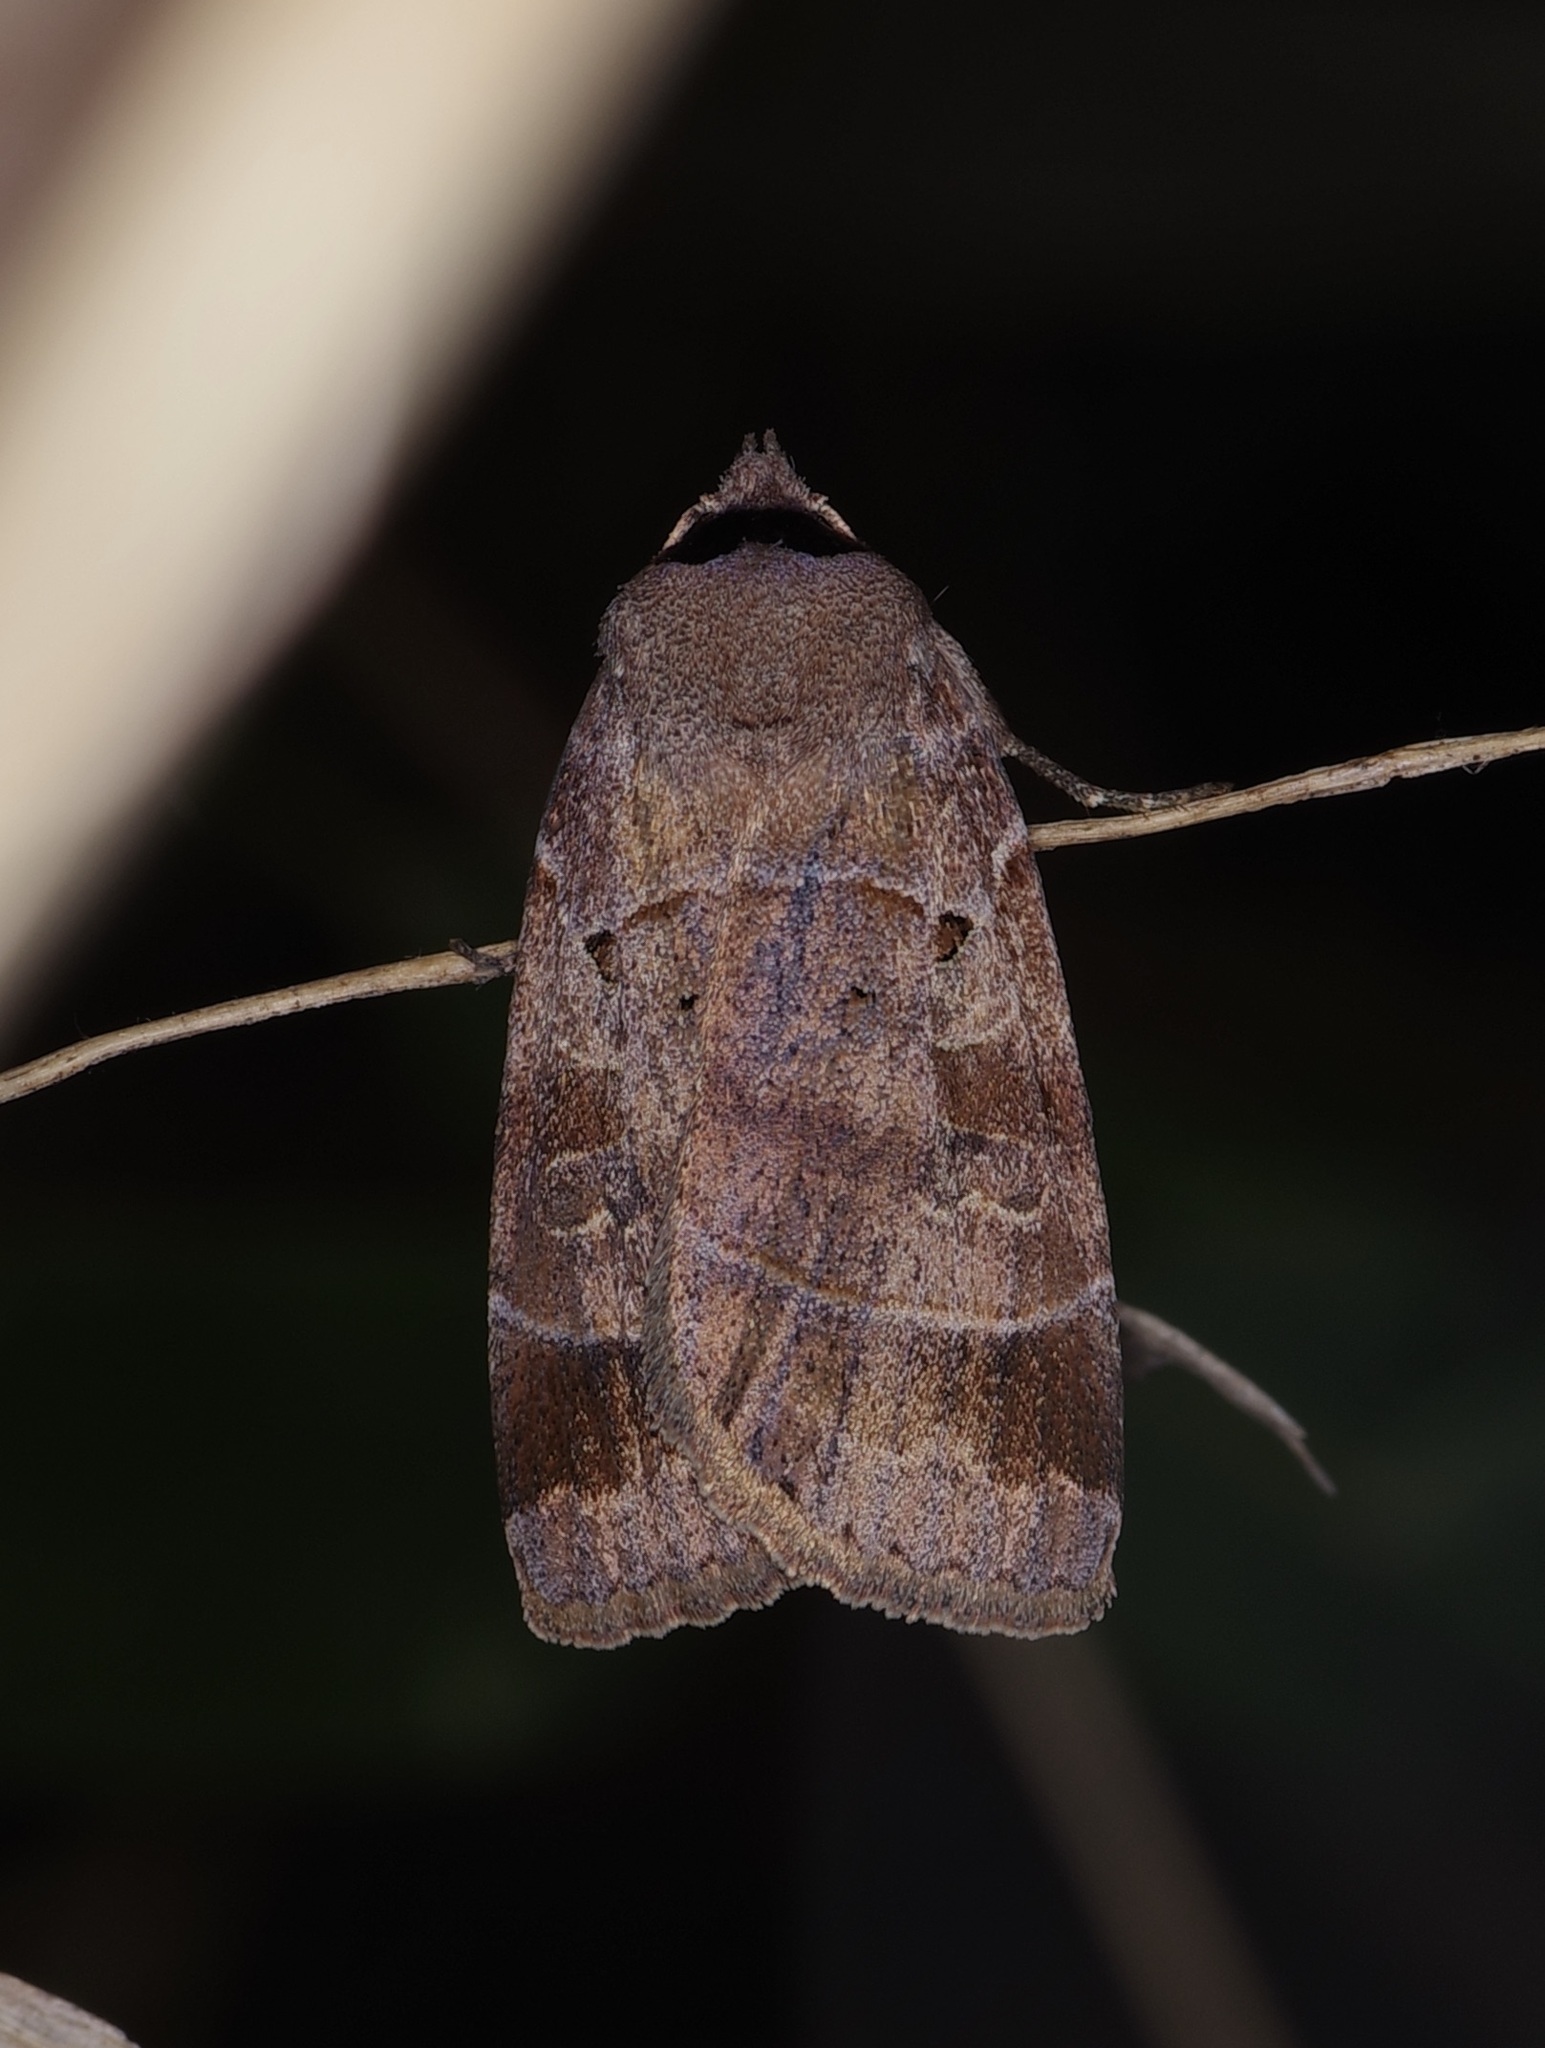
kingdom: Animalia
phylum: Arthropoda
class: Insecta
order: Lepidoptera
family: Noctuidae
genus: Agnorisma
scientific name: Agnorisma badinodis
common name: Pale-banded dart
